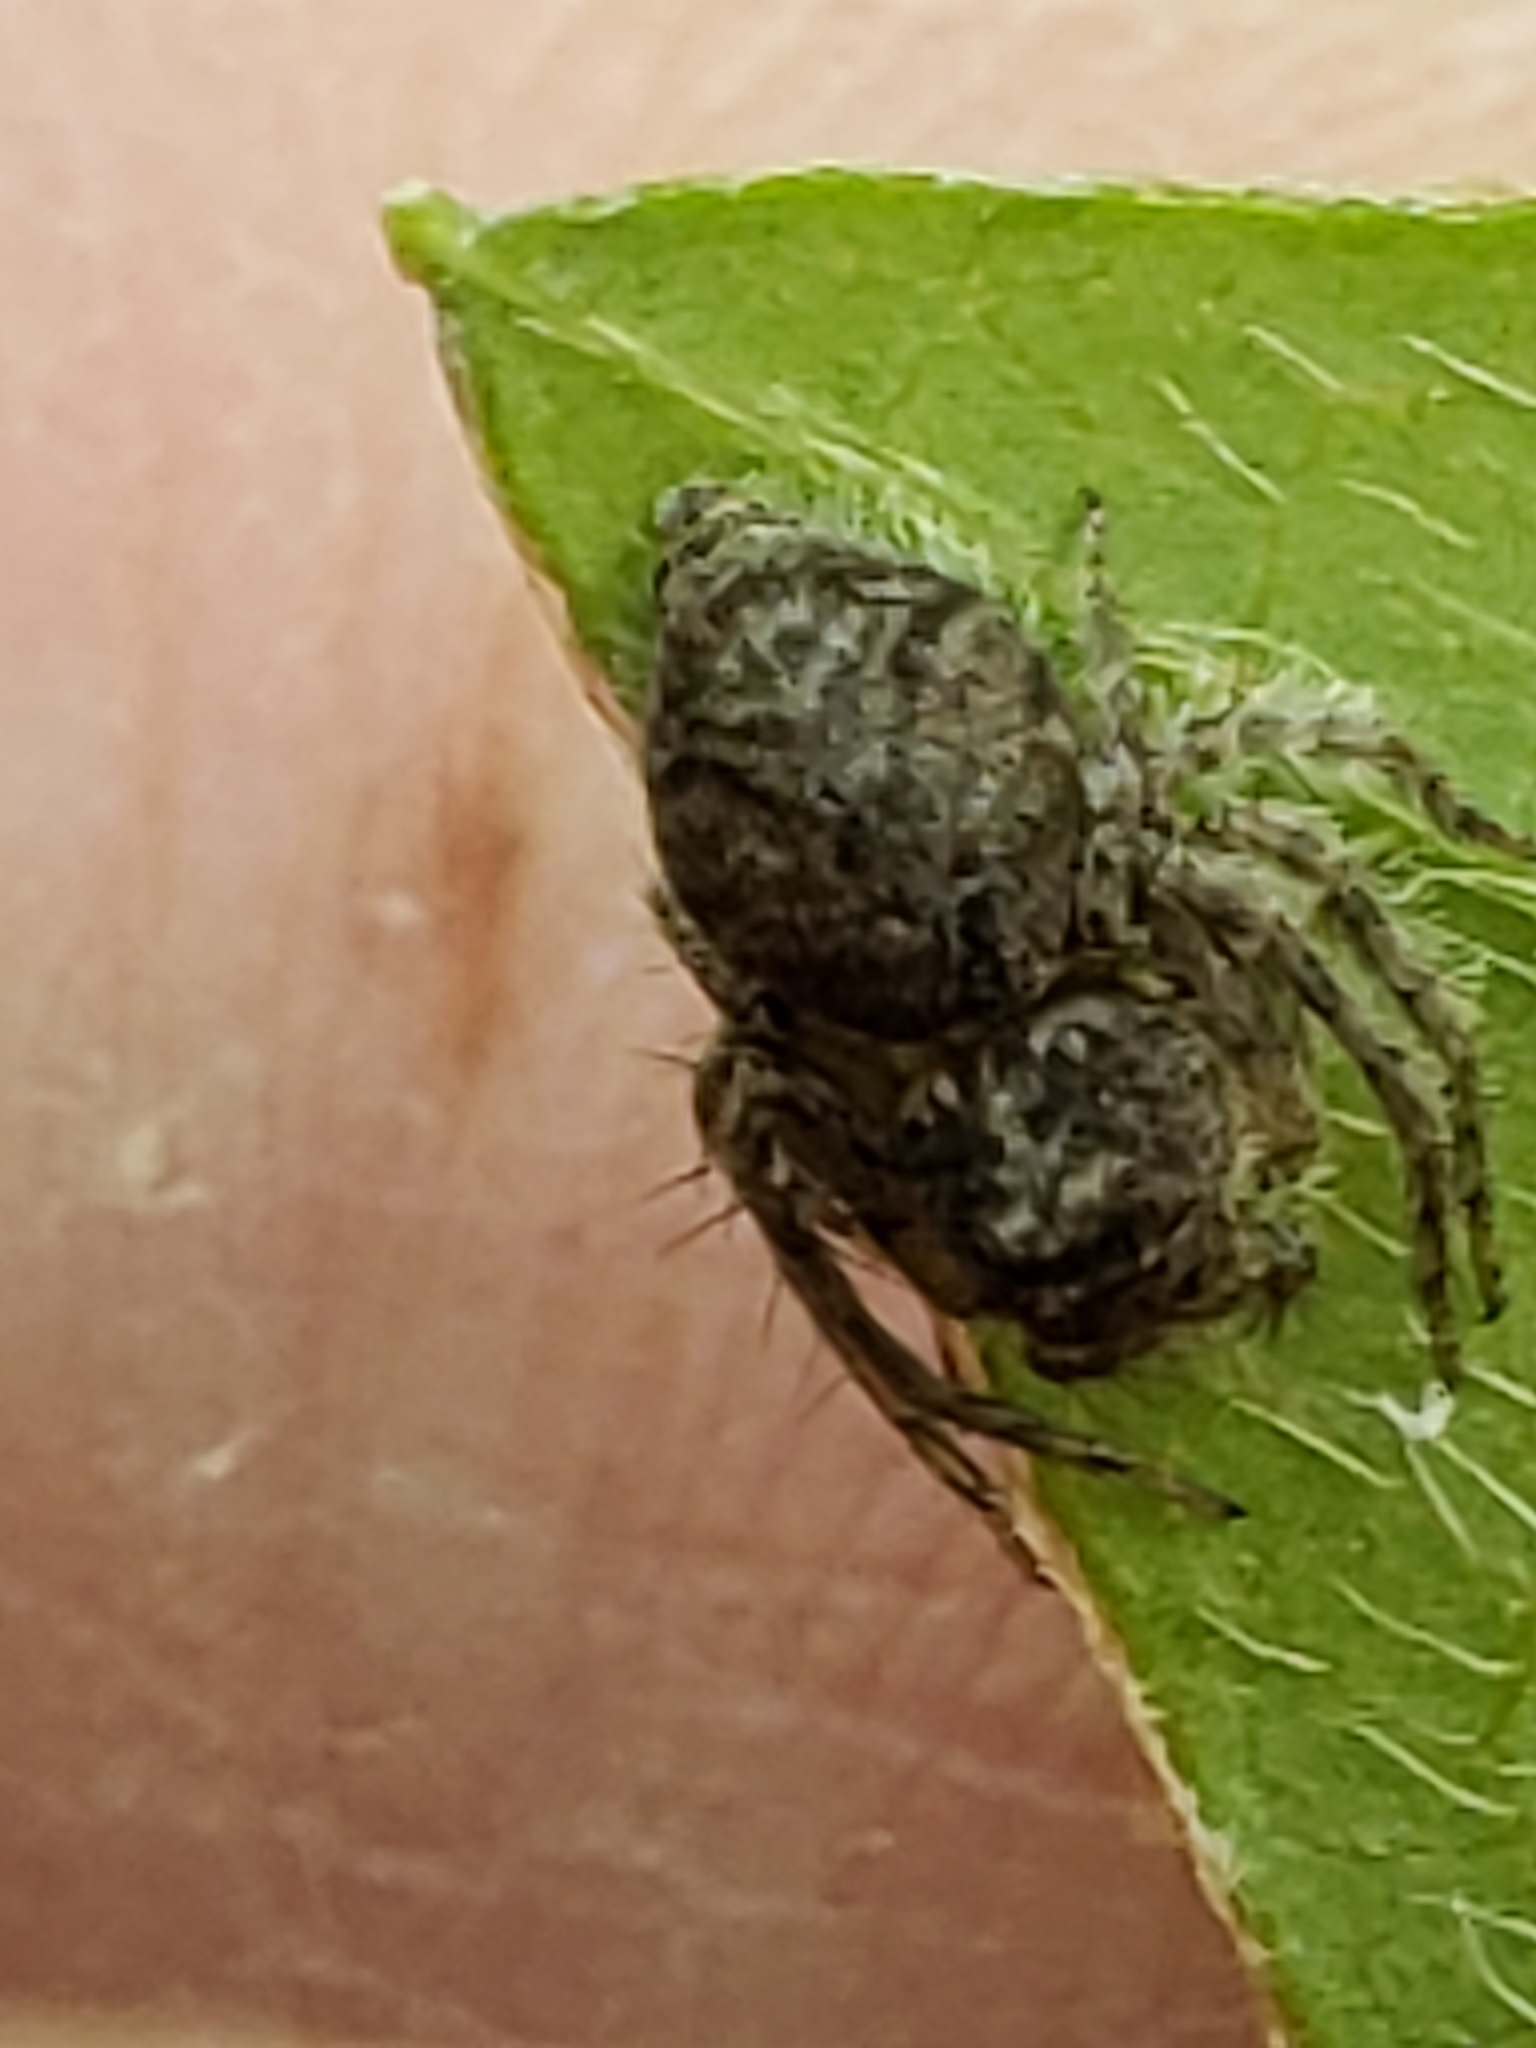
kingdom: Animalia
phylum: Arthropoda
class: Arachnida
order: Araneae
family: Oxyopidae
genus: Hamataliwa
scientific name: Hamataliwa grisea
